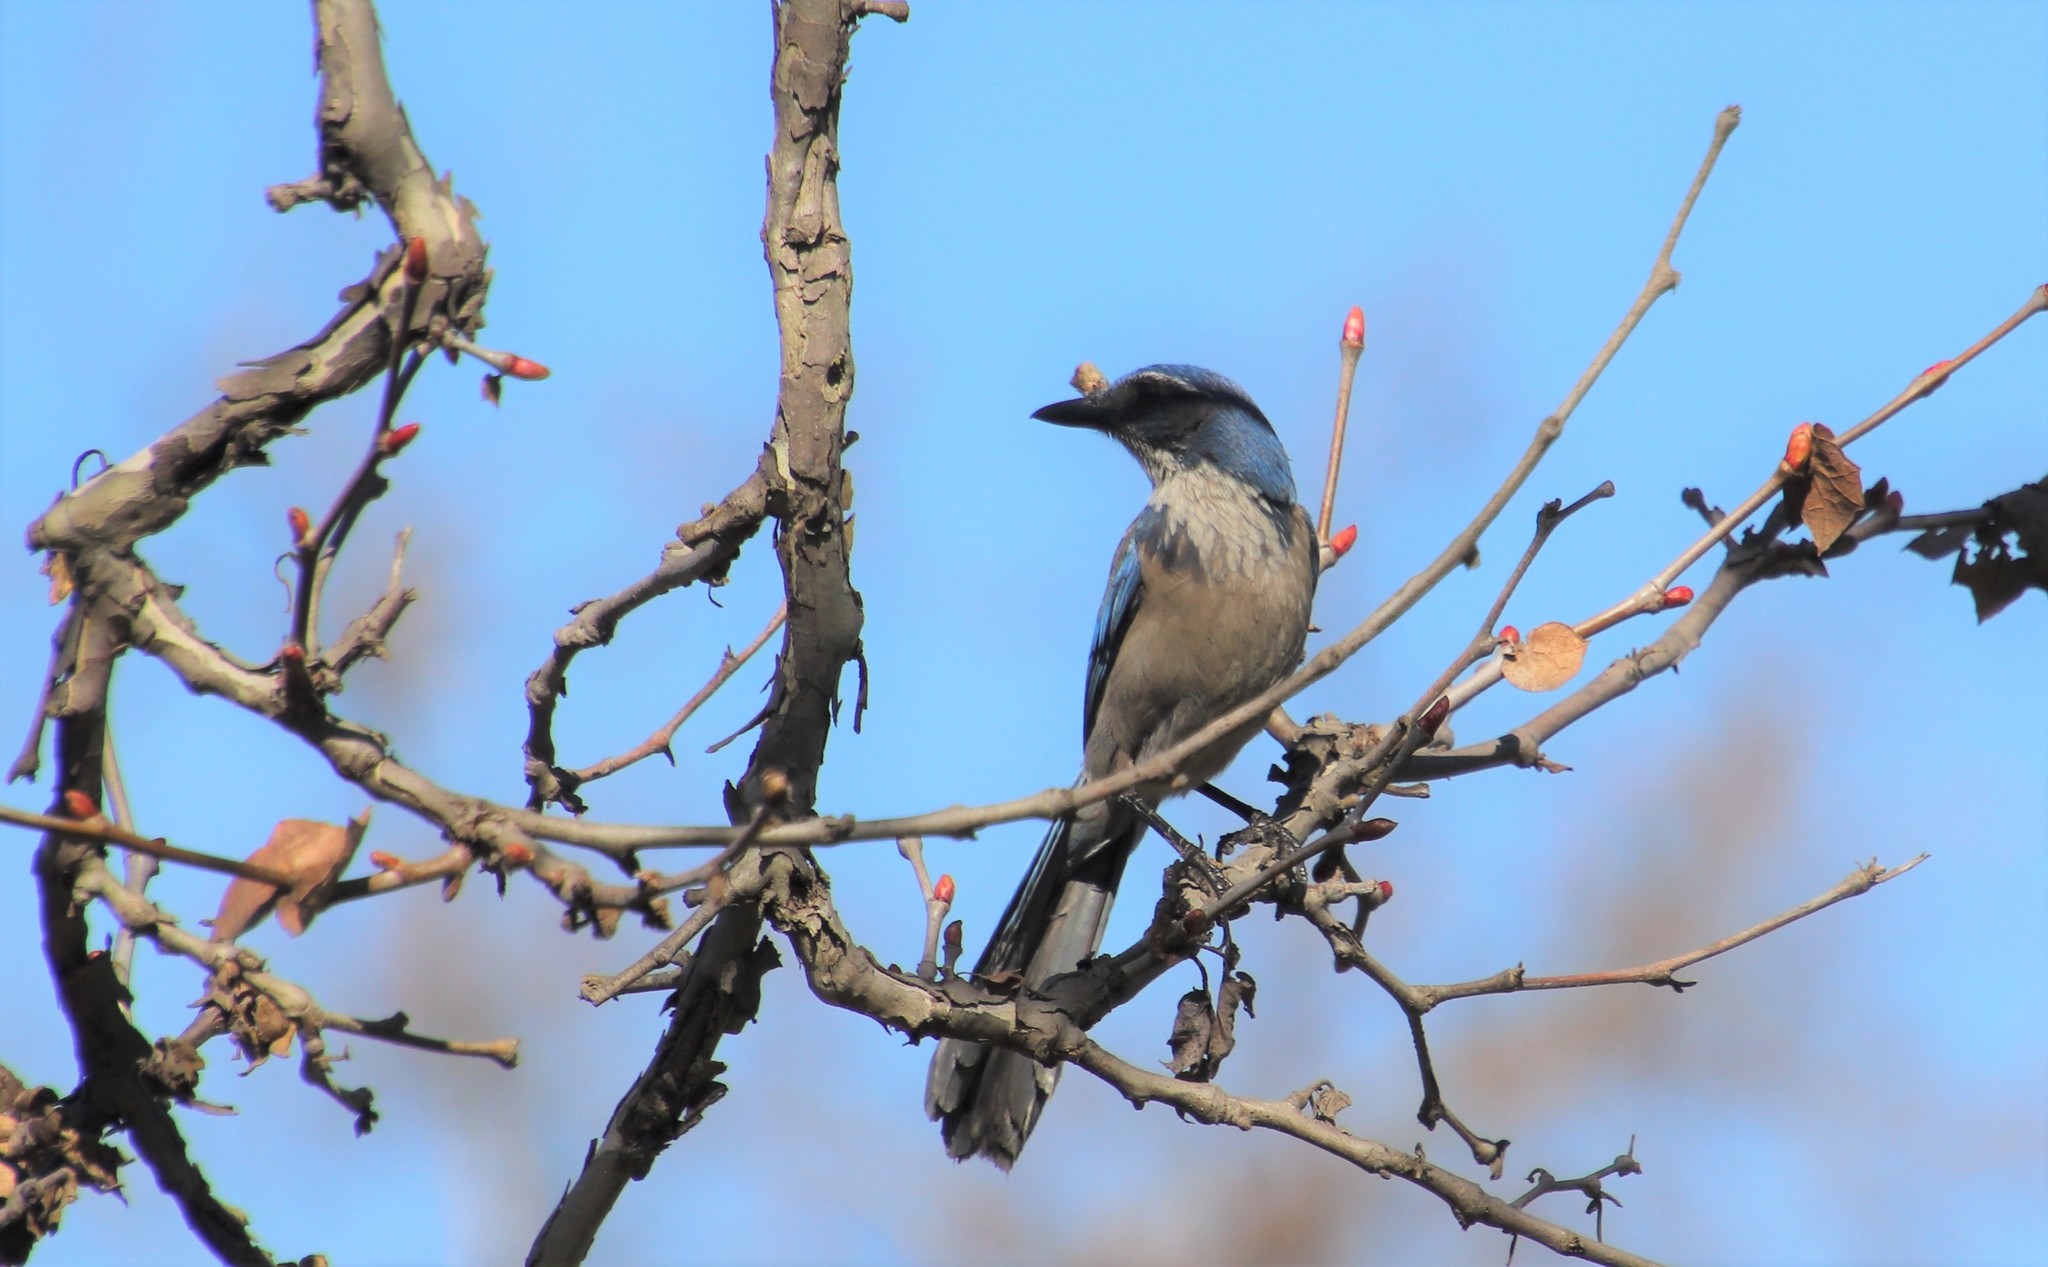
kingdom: Animalia
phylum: Chordata
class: Aves
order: Passeriformes
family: Corvidae
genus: Aphelocoma
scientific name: Aphelocoma californica
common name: California scrub-jay
